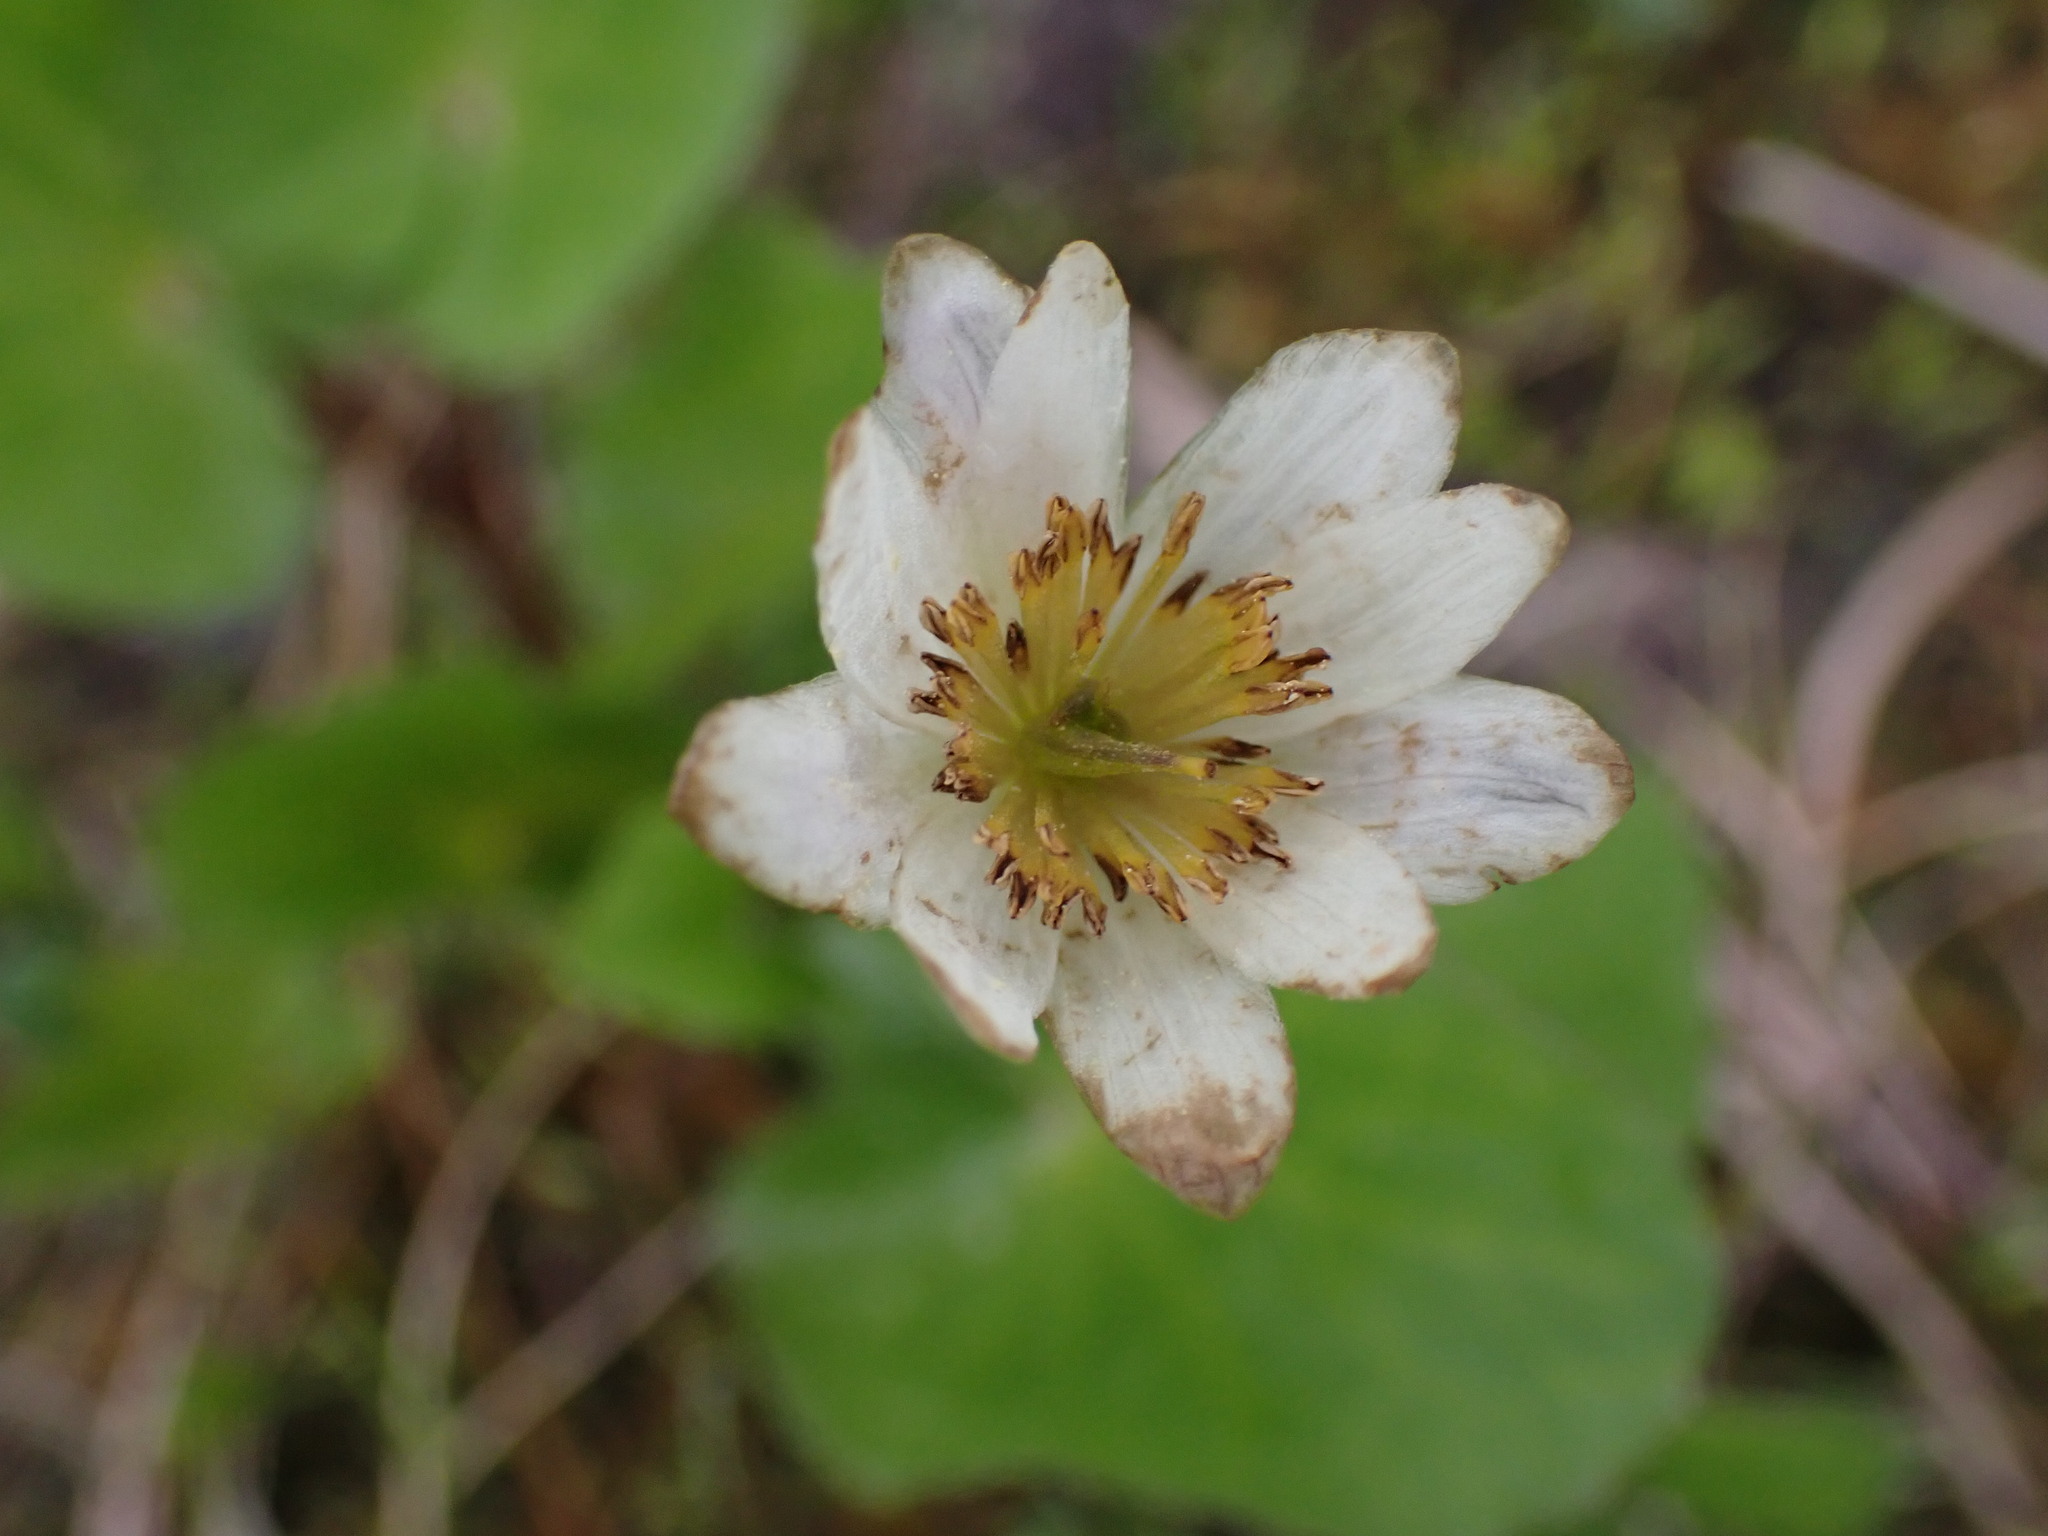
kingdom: Plantae
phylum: Tracheophyta
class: Magnoliopsida
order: Ranunculales
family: Ranunculaceae
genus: Caltha
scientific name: Caltha leptosepala
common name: Elkslip
